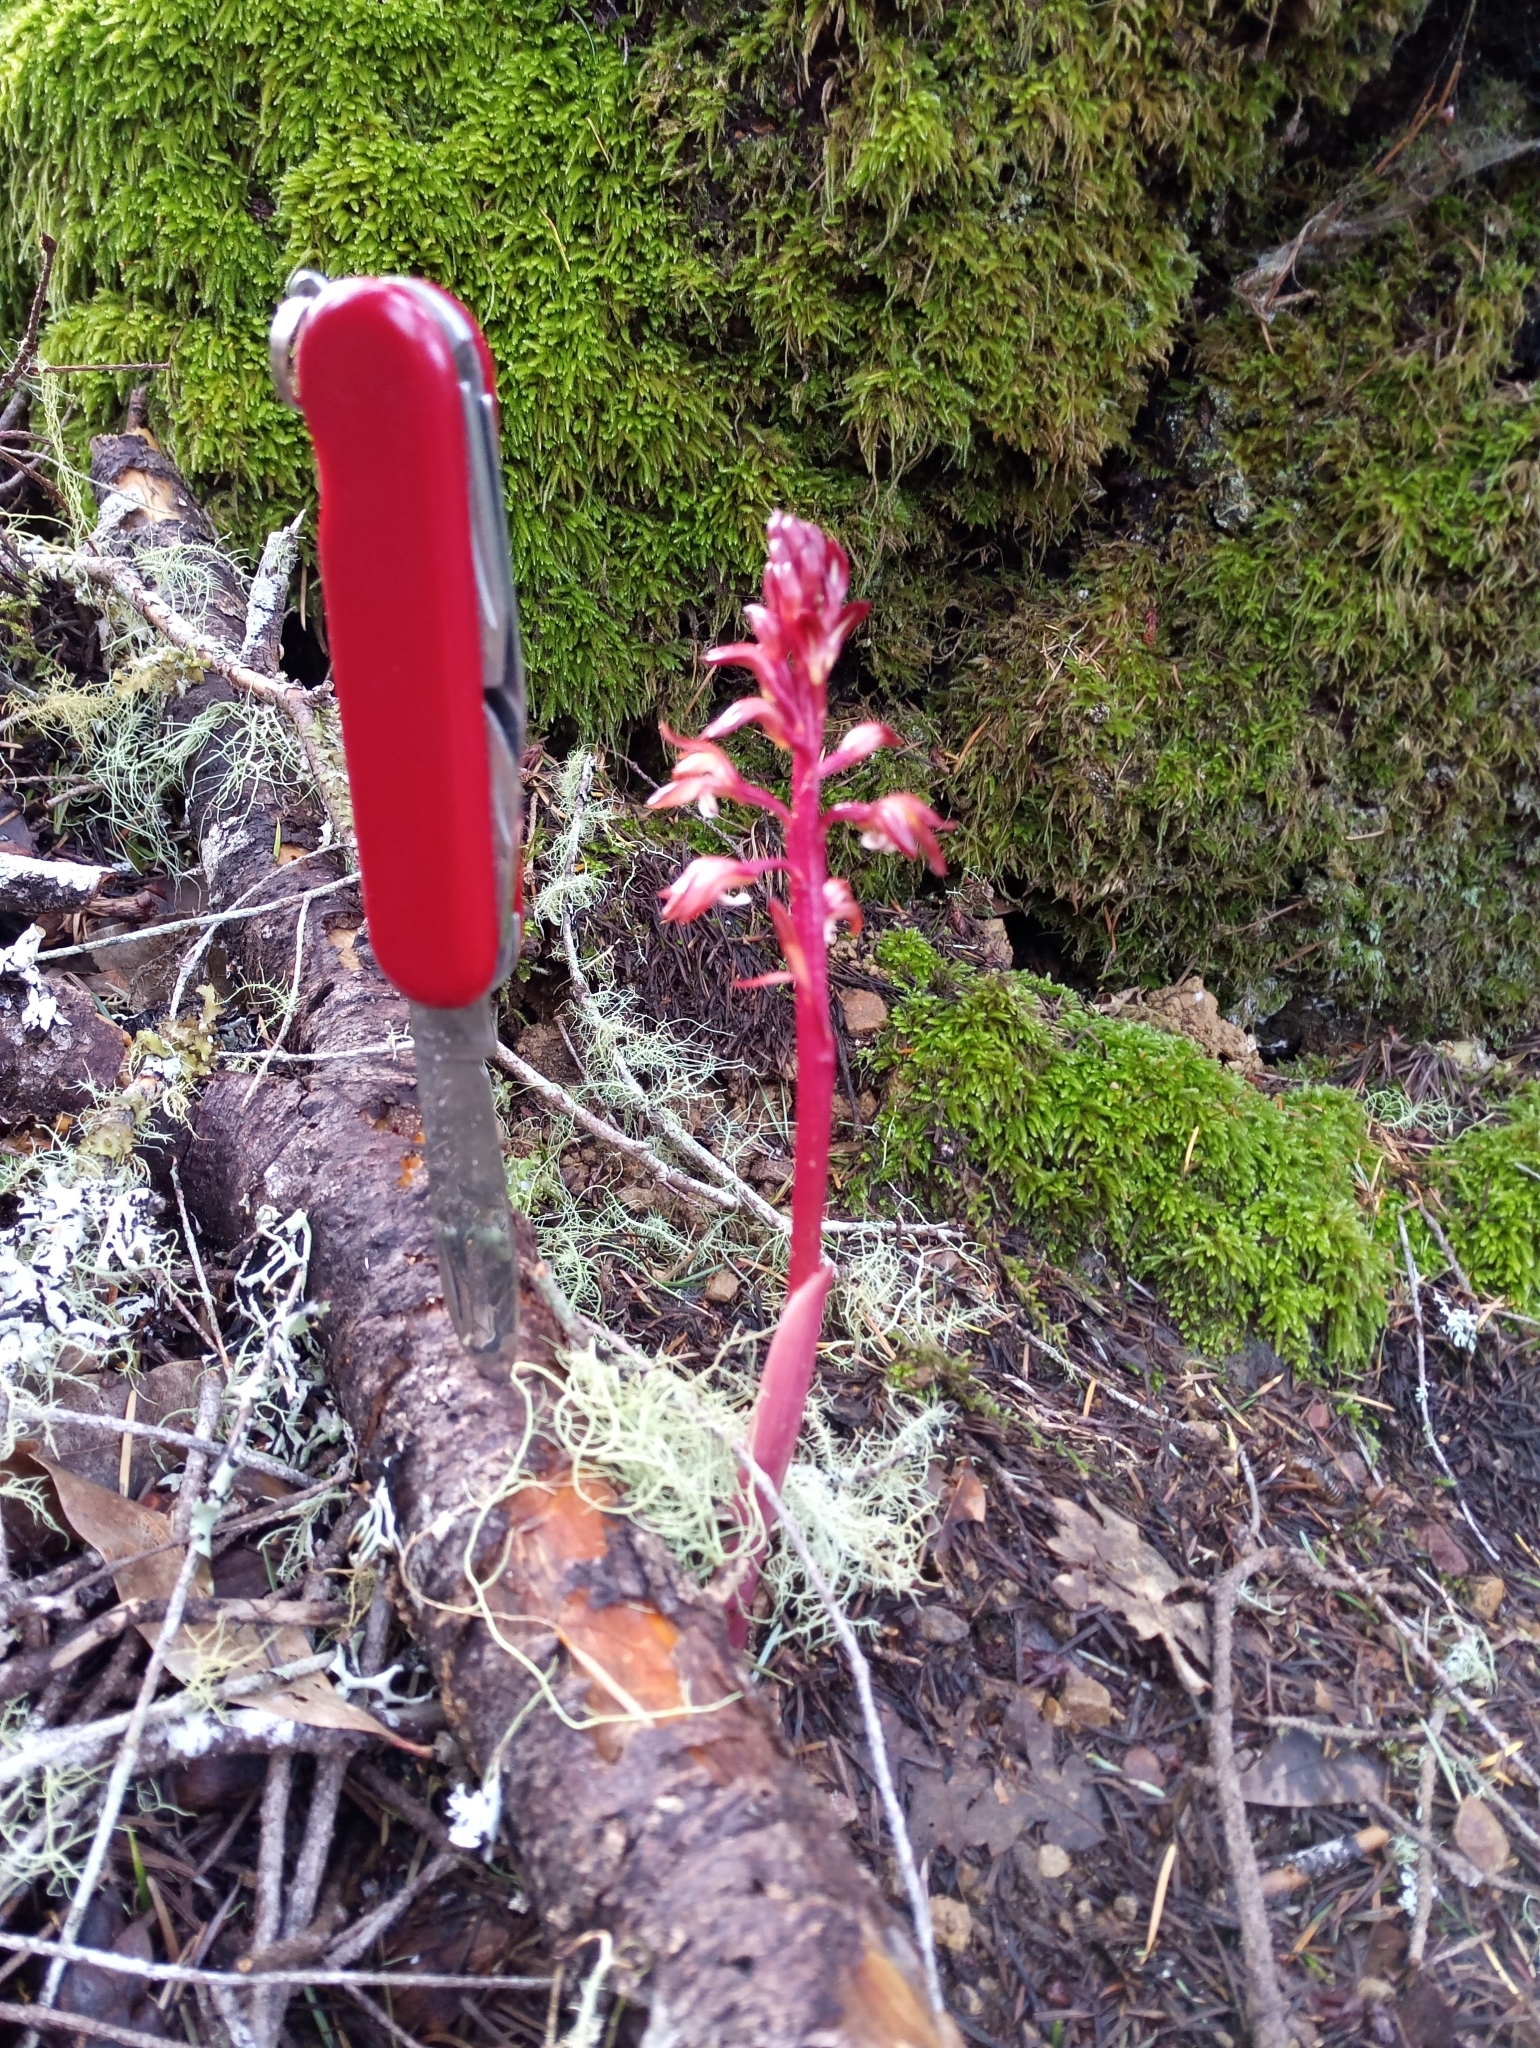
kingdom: Plantae
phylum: Tracheophyta
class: Liliopsida
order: Asparagales
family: Orchidaceae
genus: Corallorhiza
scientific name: Corallorhiza maculata
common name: Spotted coralroot
